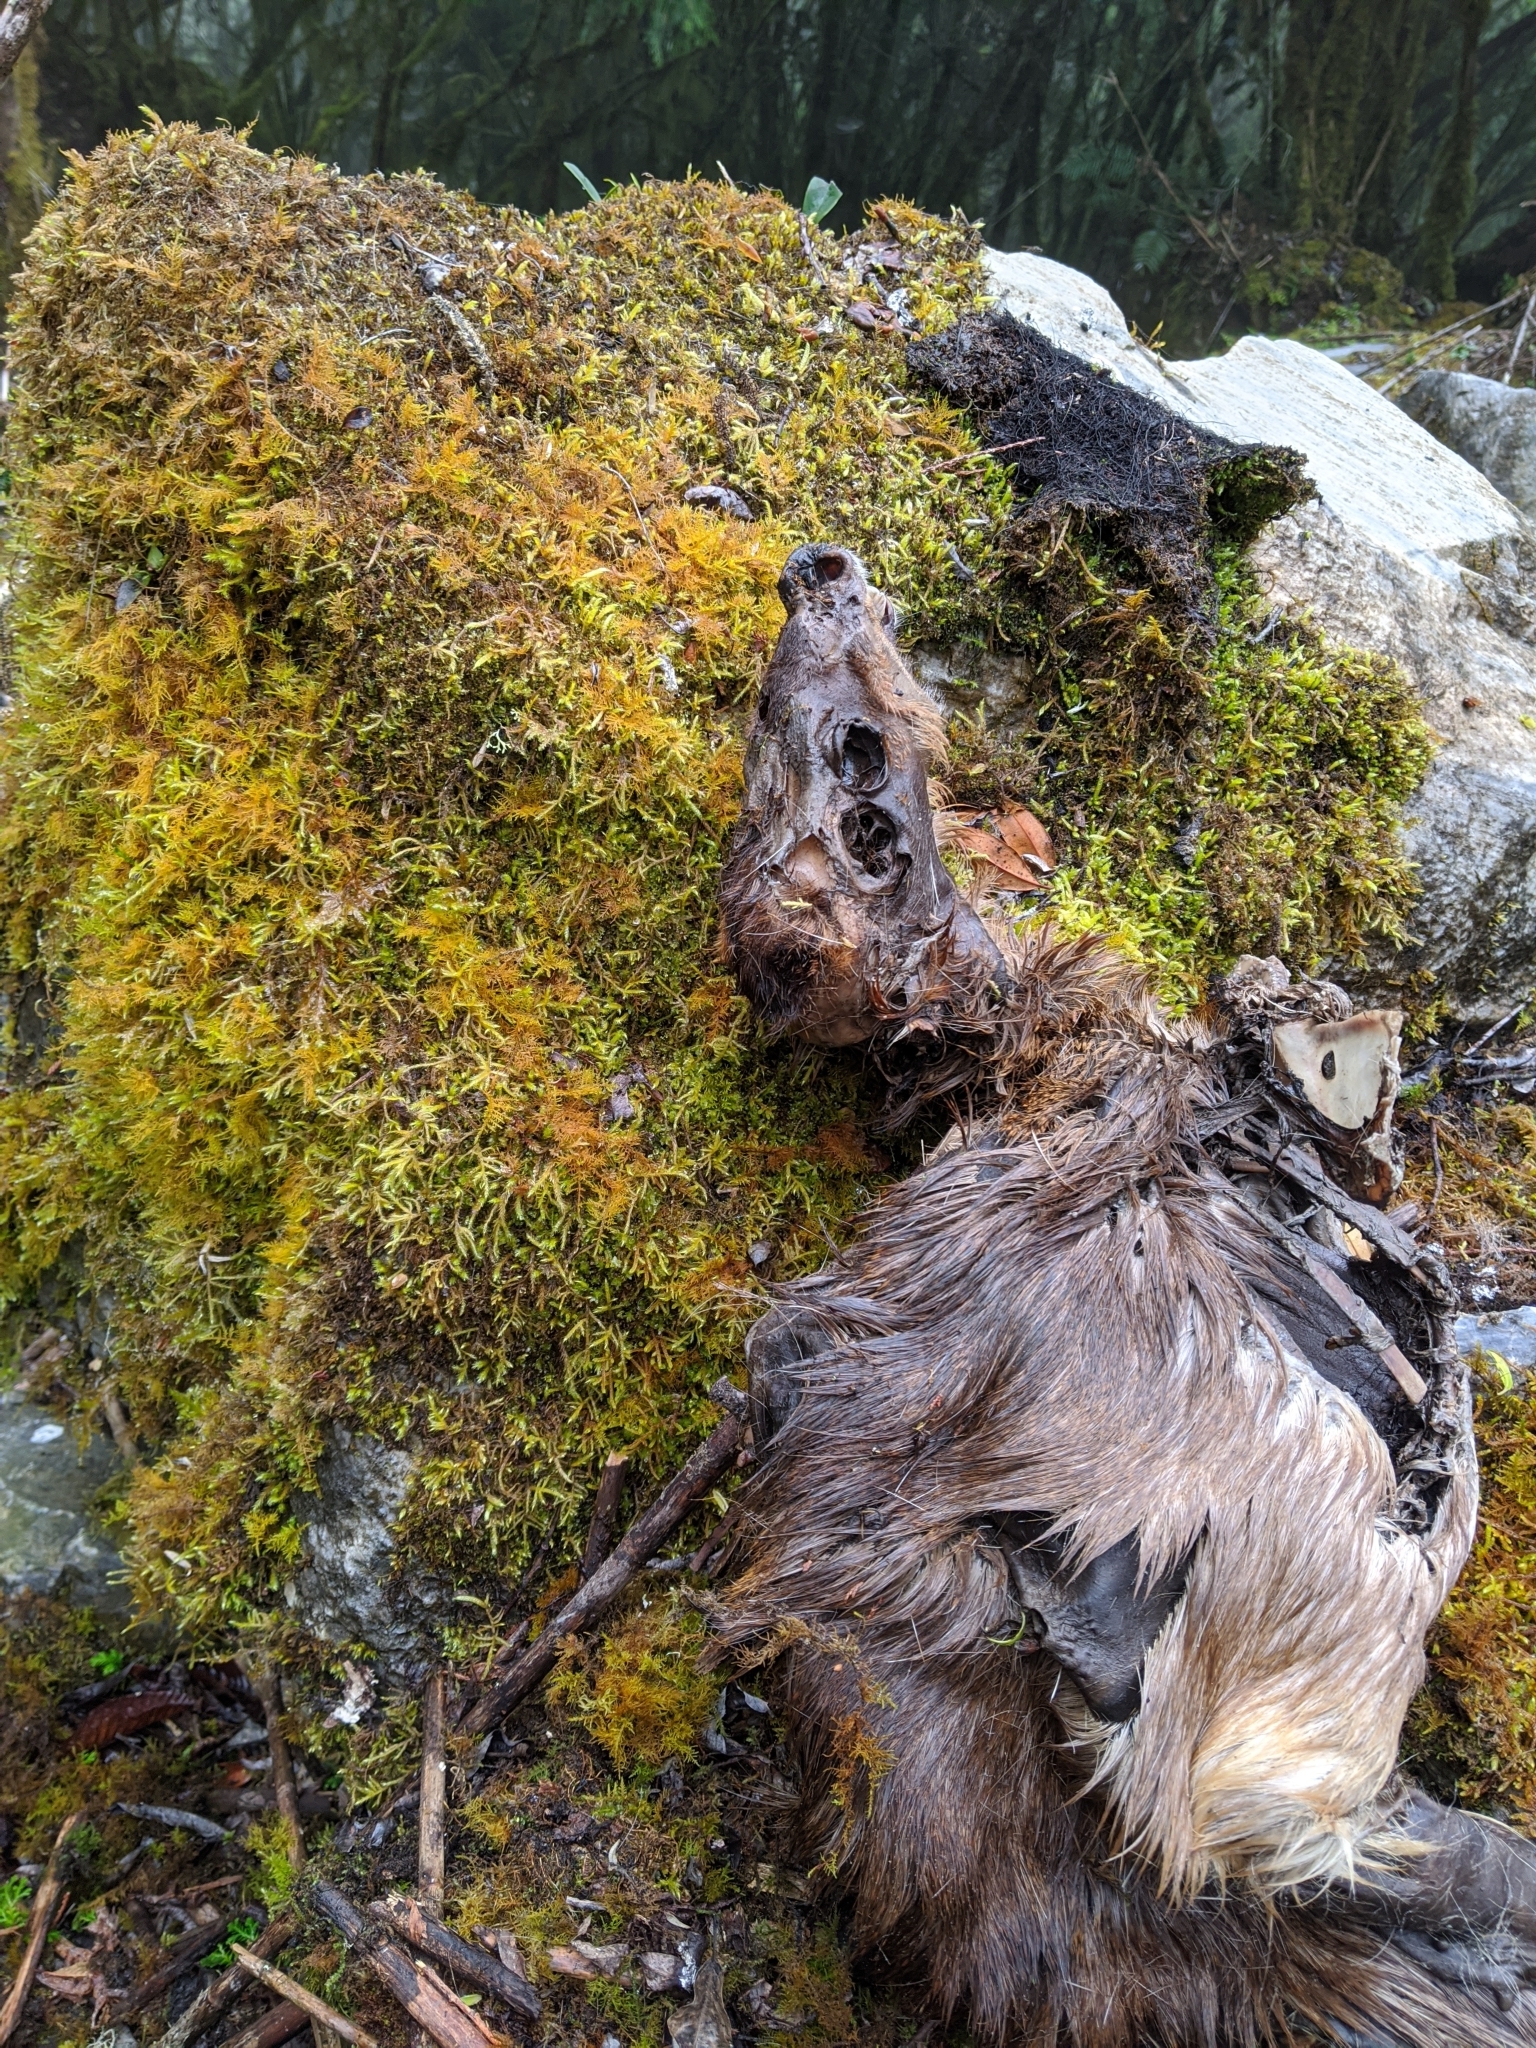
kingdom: Animalia
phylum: Chordata
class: Mammalia
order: Artiodactyla
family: Cervidae
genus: Muntiacus
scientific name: Muntiacus reevesi
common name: Reeves' muntjac
